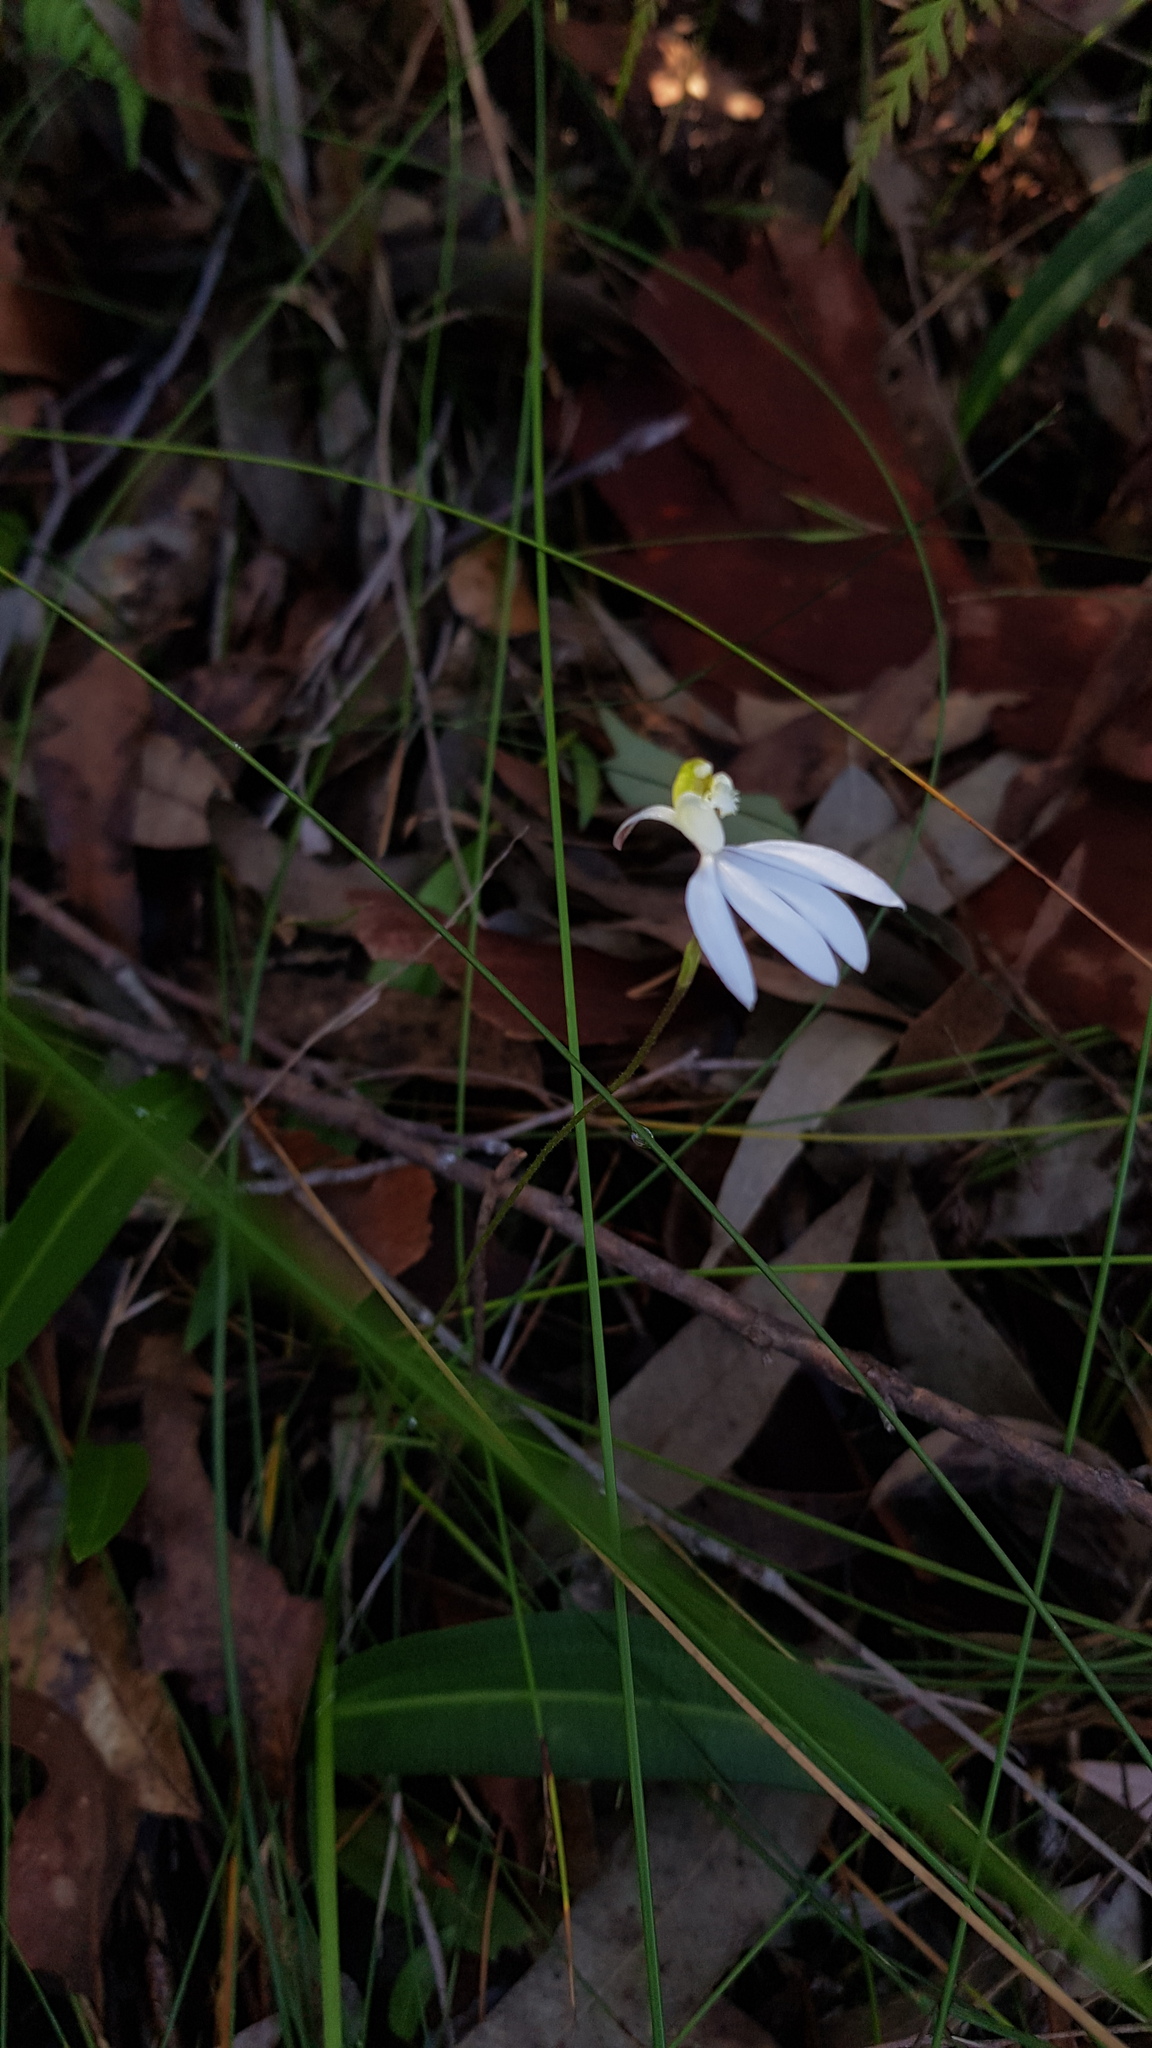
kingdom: Plantae
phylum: Tracheophyta
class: Liliopsida
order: Asparagales
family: Orchidaceae
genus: Caladenia
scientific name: Caladenia catenata
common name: White caladenia
